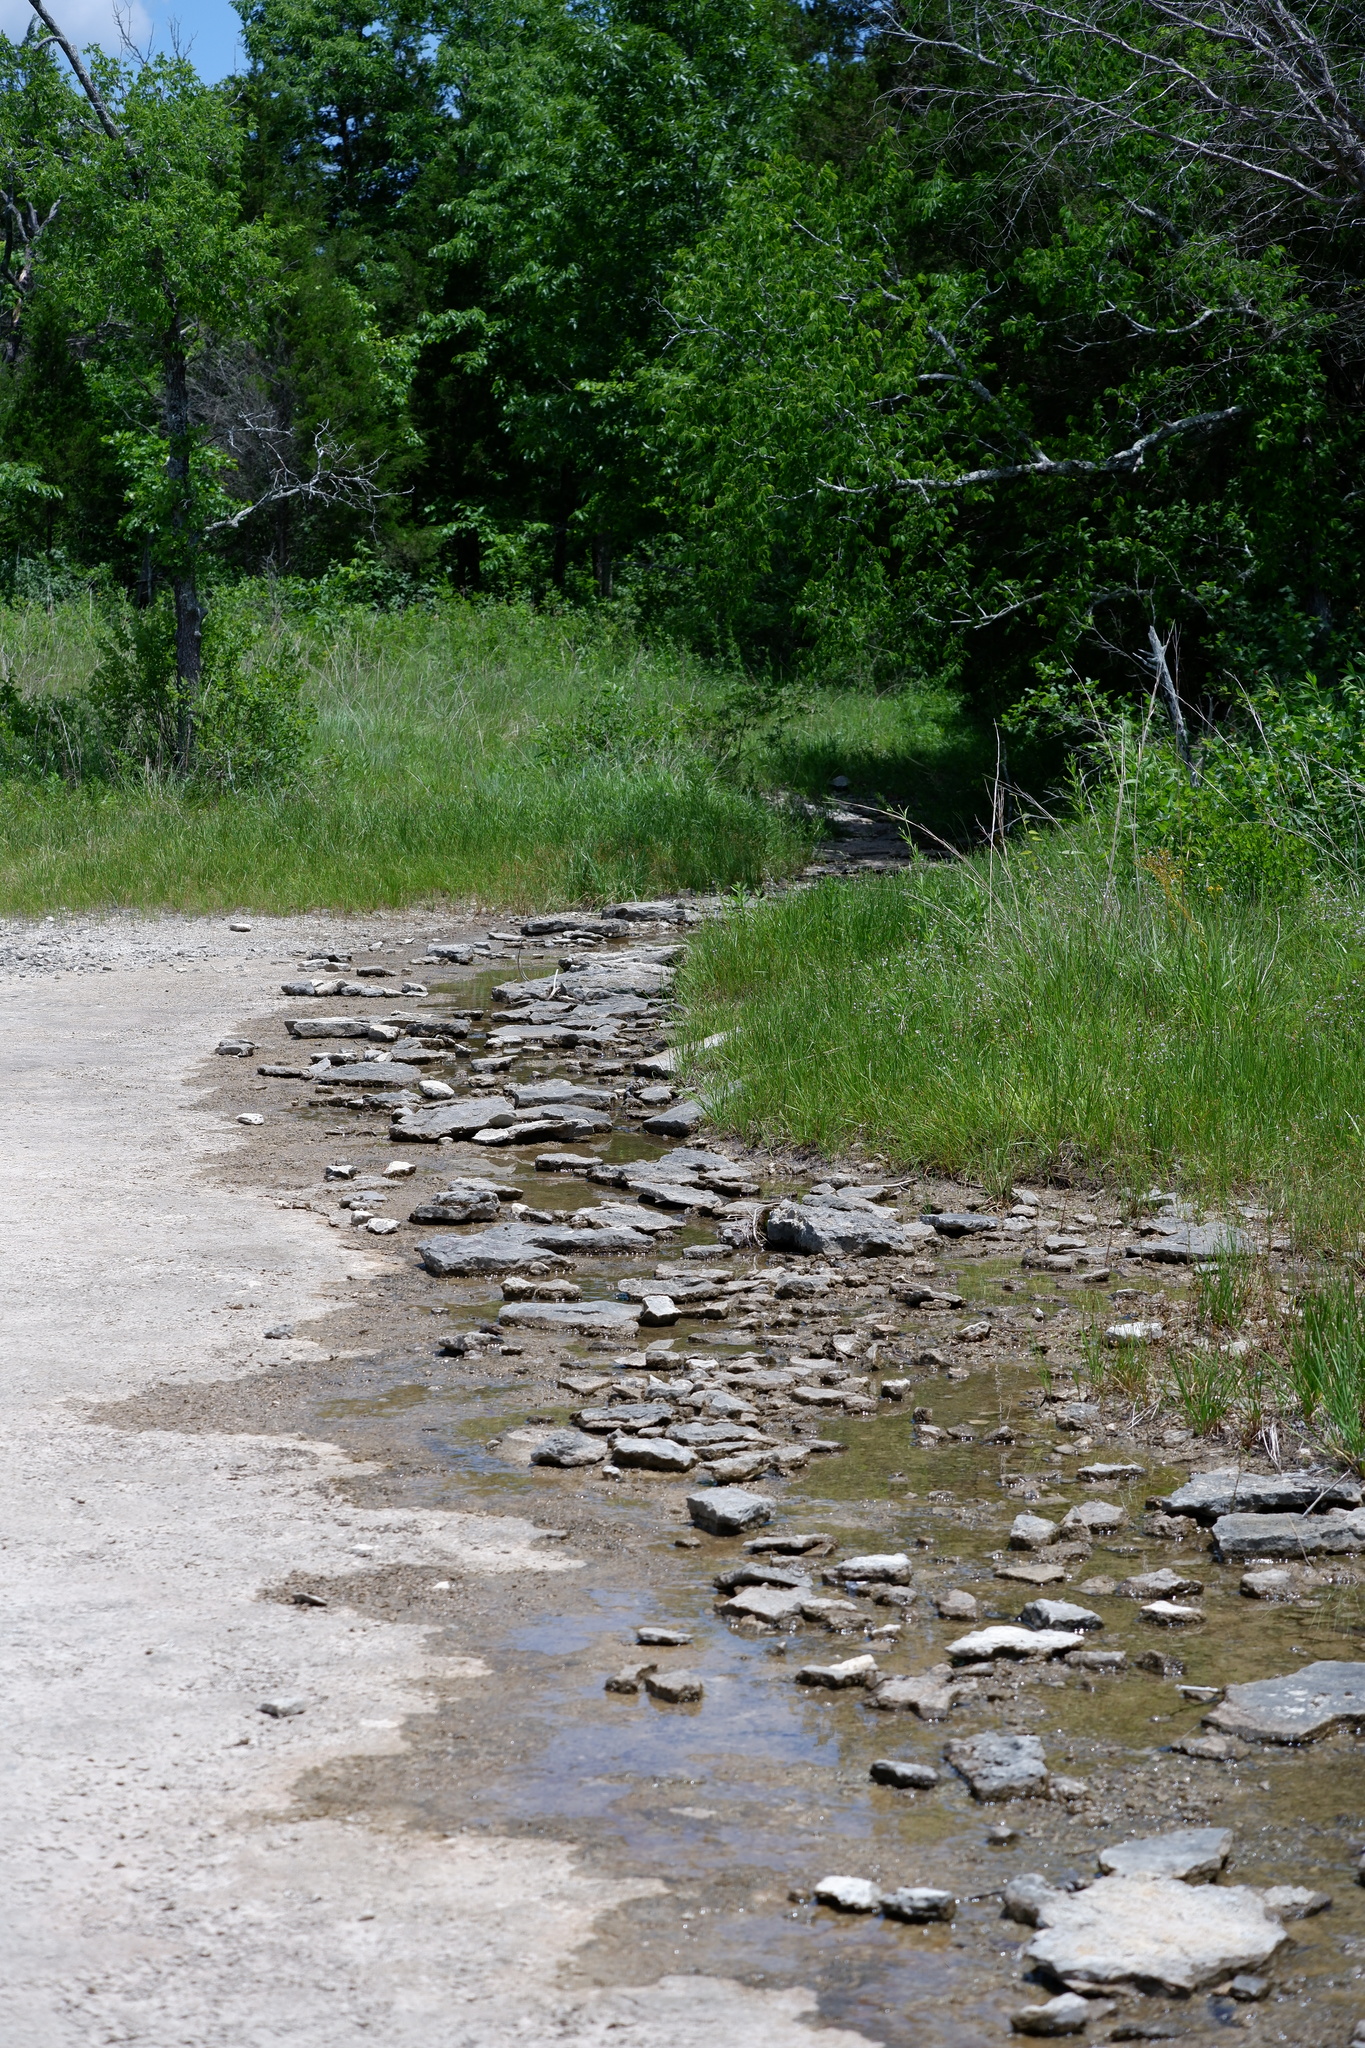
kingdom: Plantae
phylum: Tracheophyta
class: Liliopsida
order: Poales
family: Juncaceae
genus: Juncus
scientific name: Juncus filipendulus
